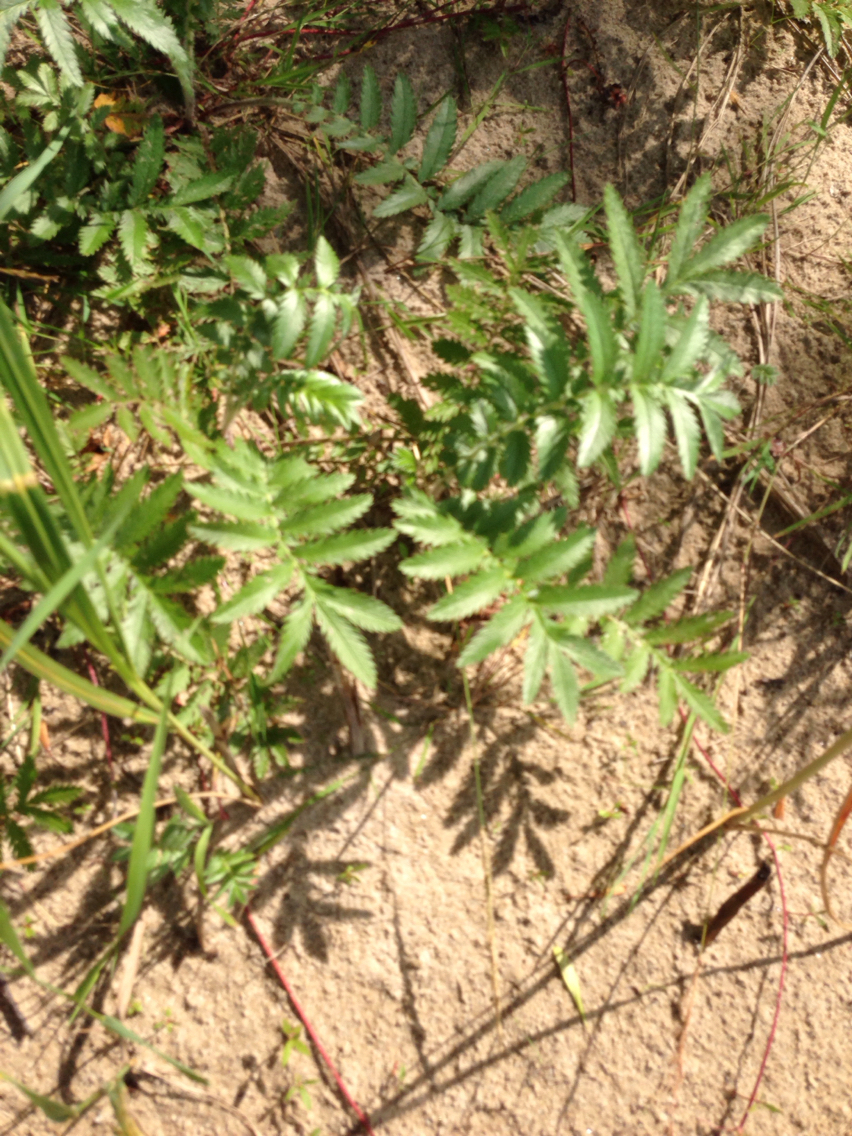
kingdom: Plantae
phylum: Tracheophyta
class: Magnoliopsida
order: Rosales
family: Rosaceae
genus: Argentina
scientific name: Argentina anserina
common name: Common silverweed
